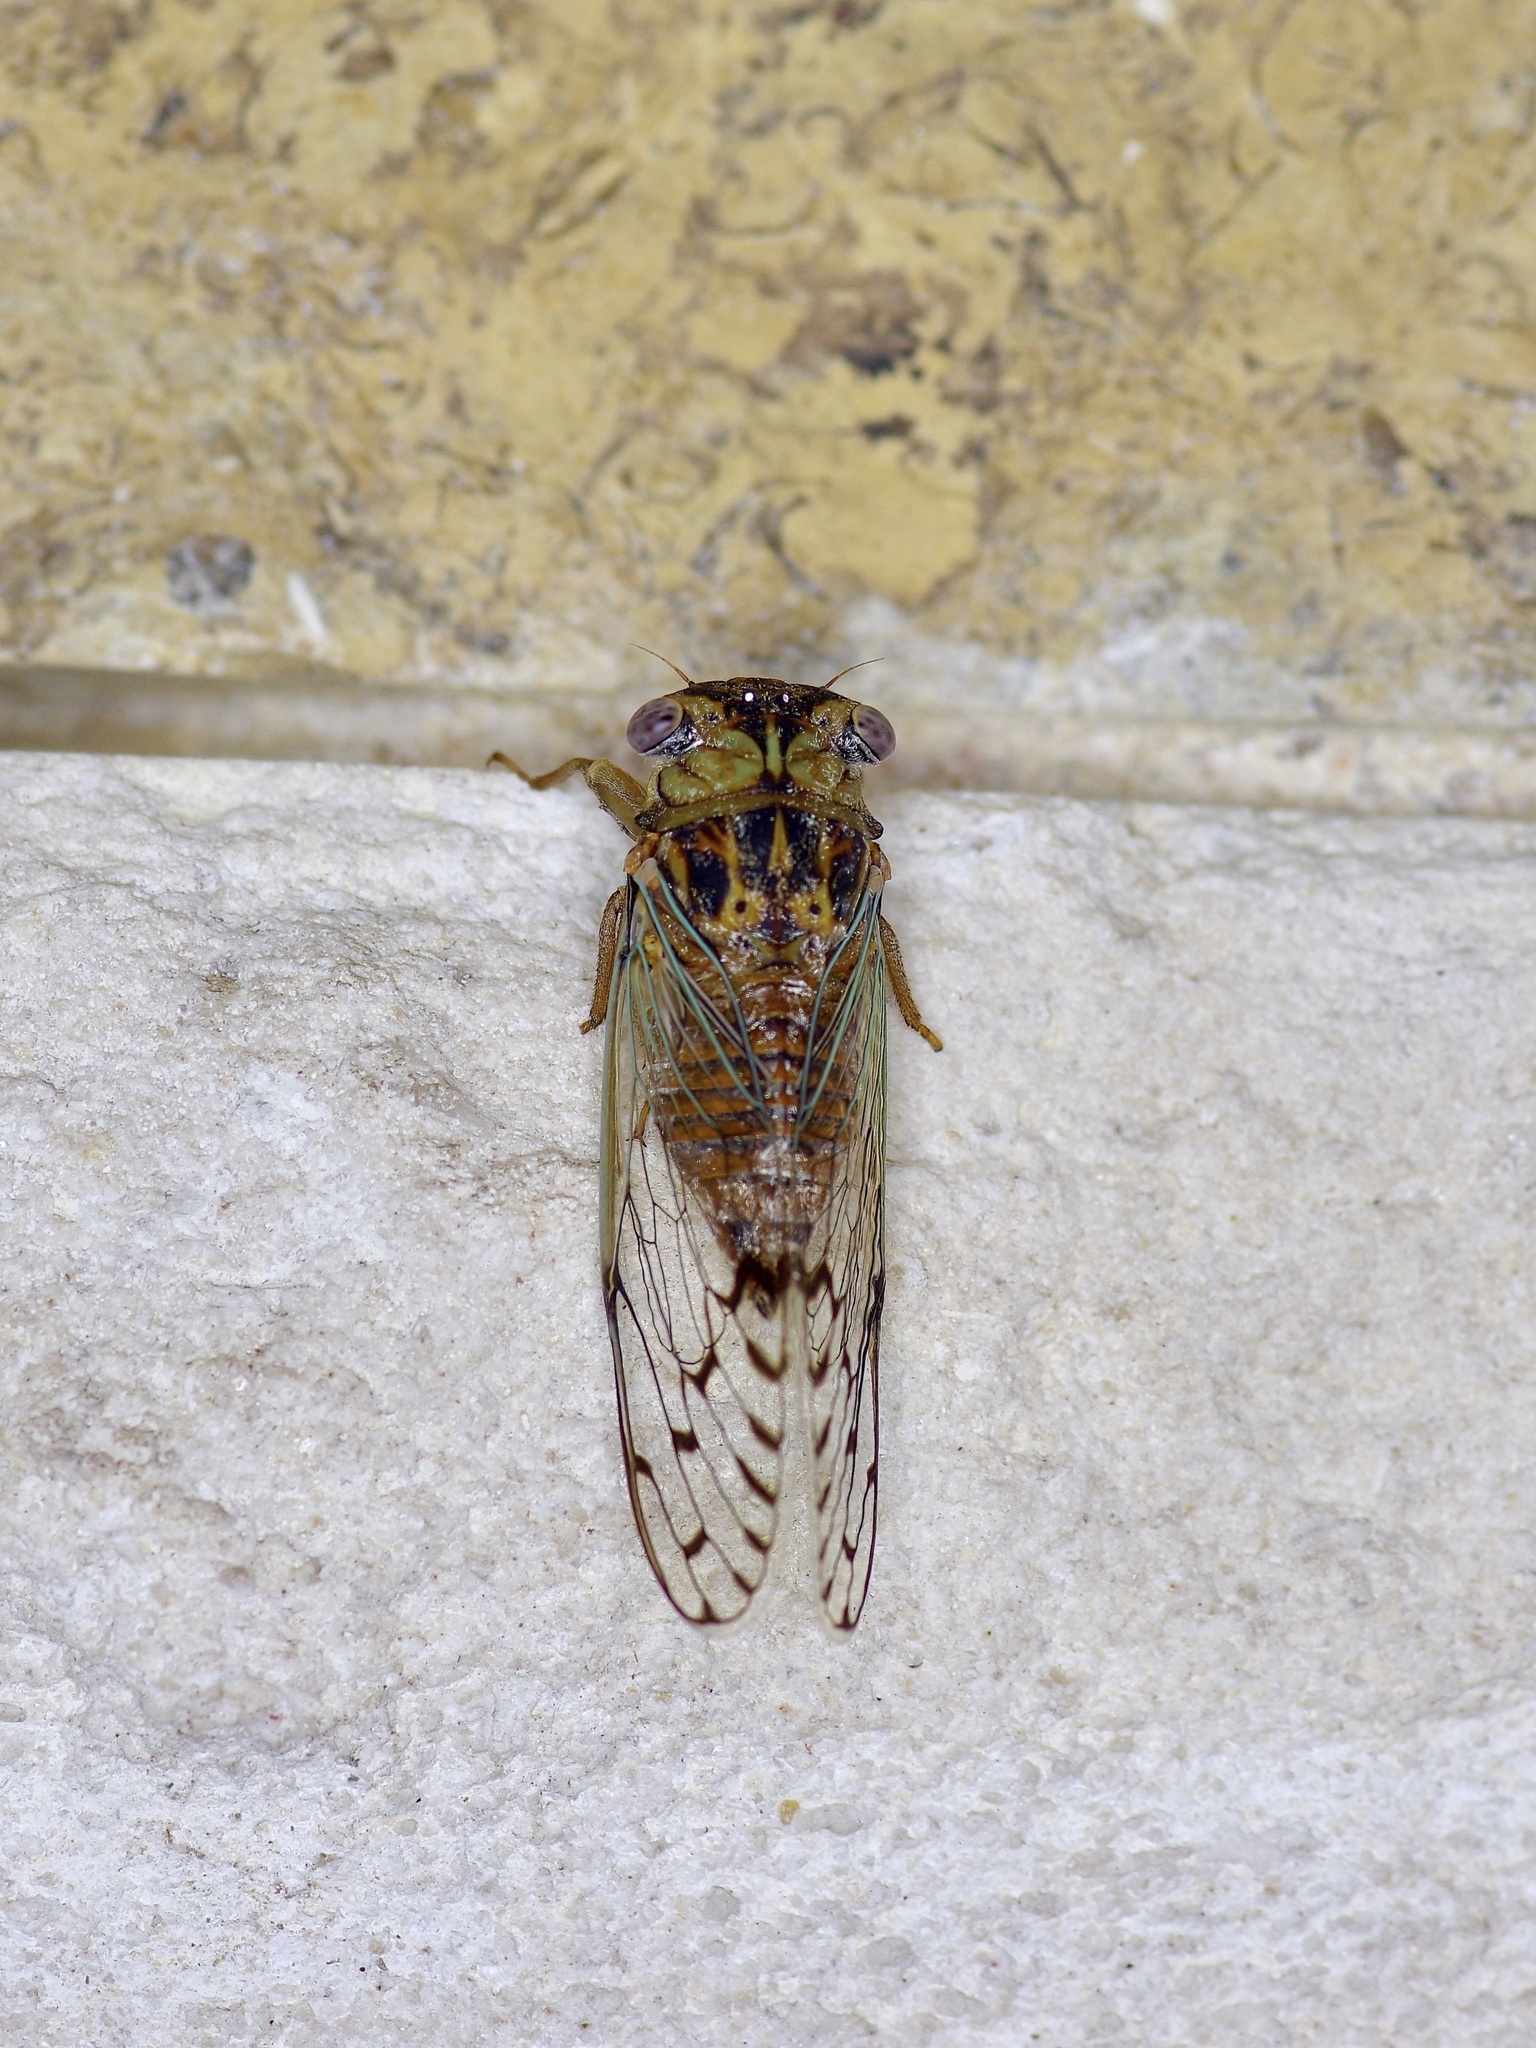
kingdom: Animalia
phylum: Arthropoda
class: Insecta
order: Hemiptera
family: Cicadidae
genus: Pacarina
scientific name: Pacarina puella
